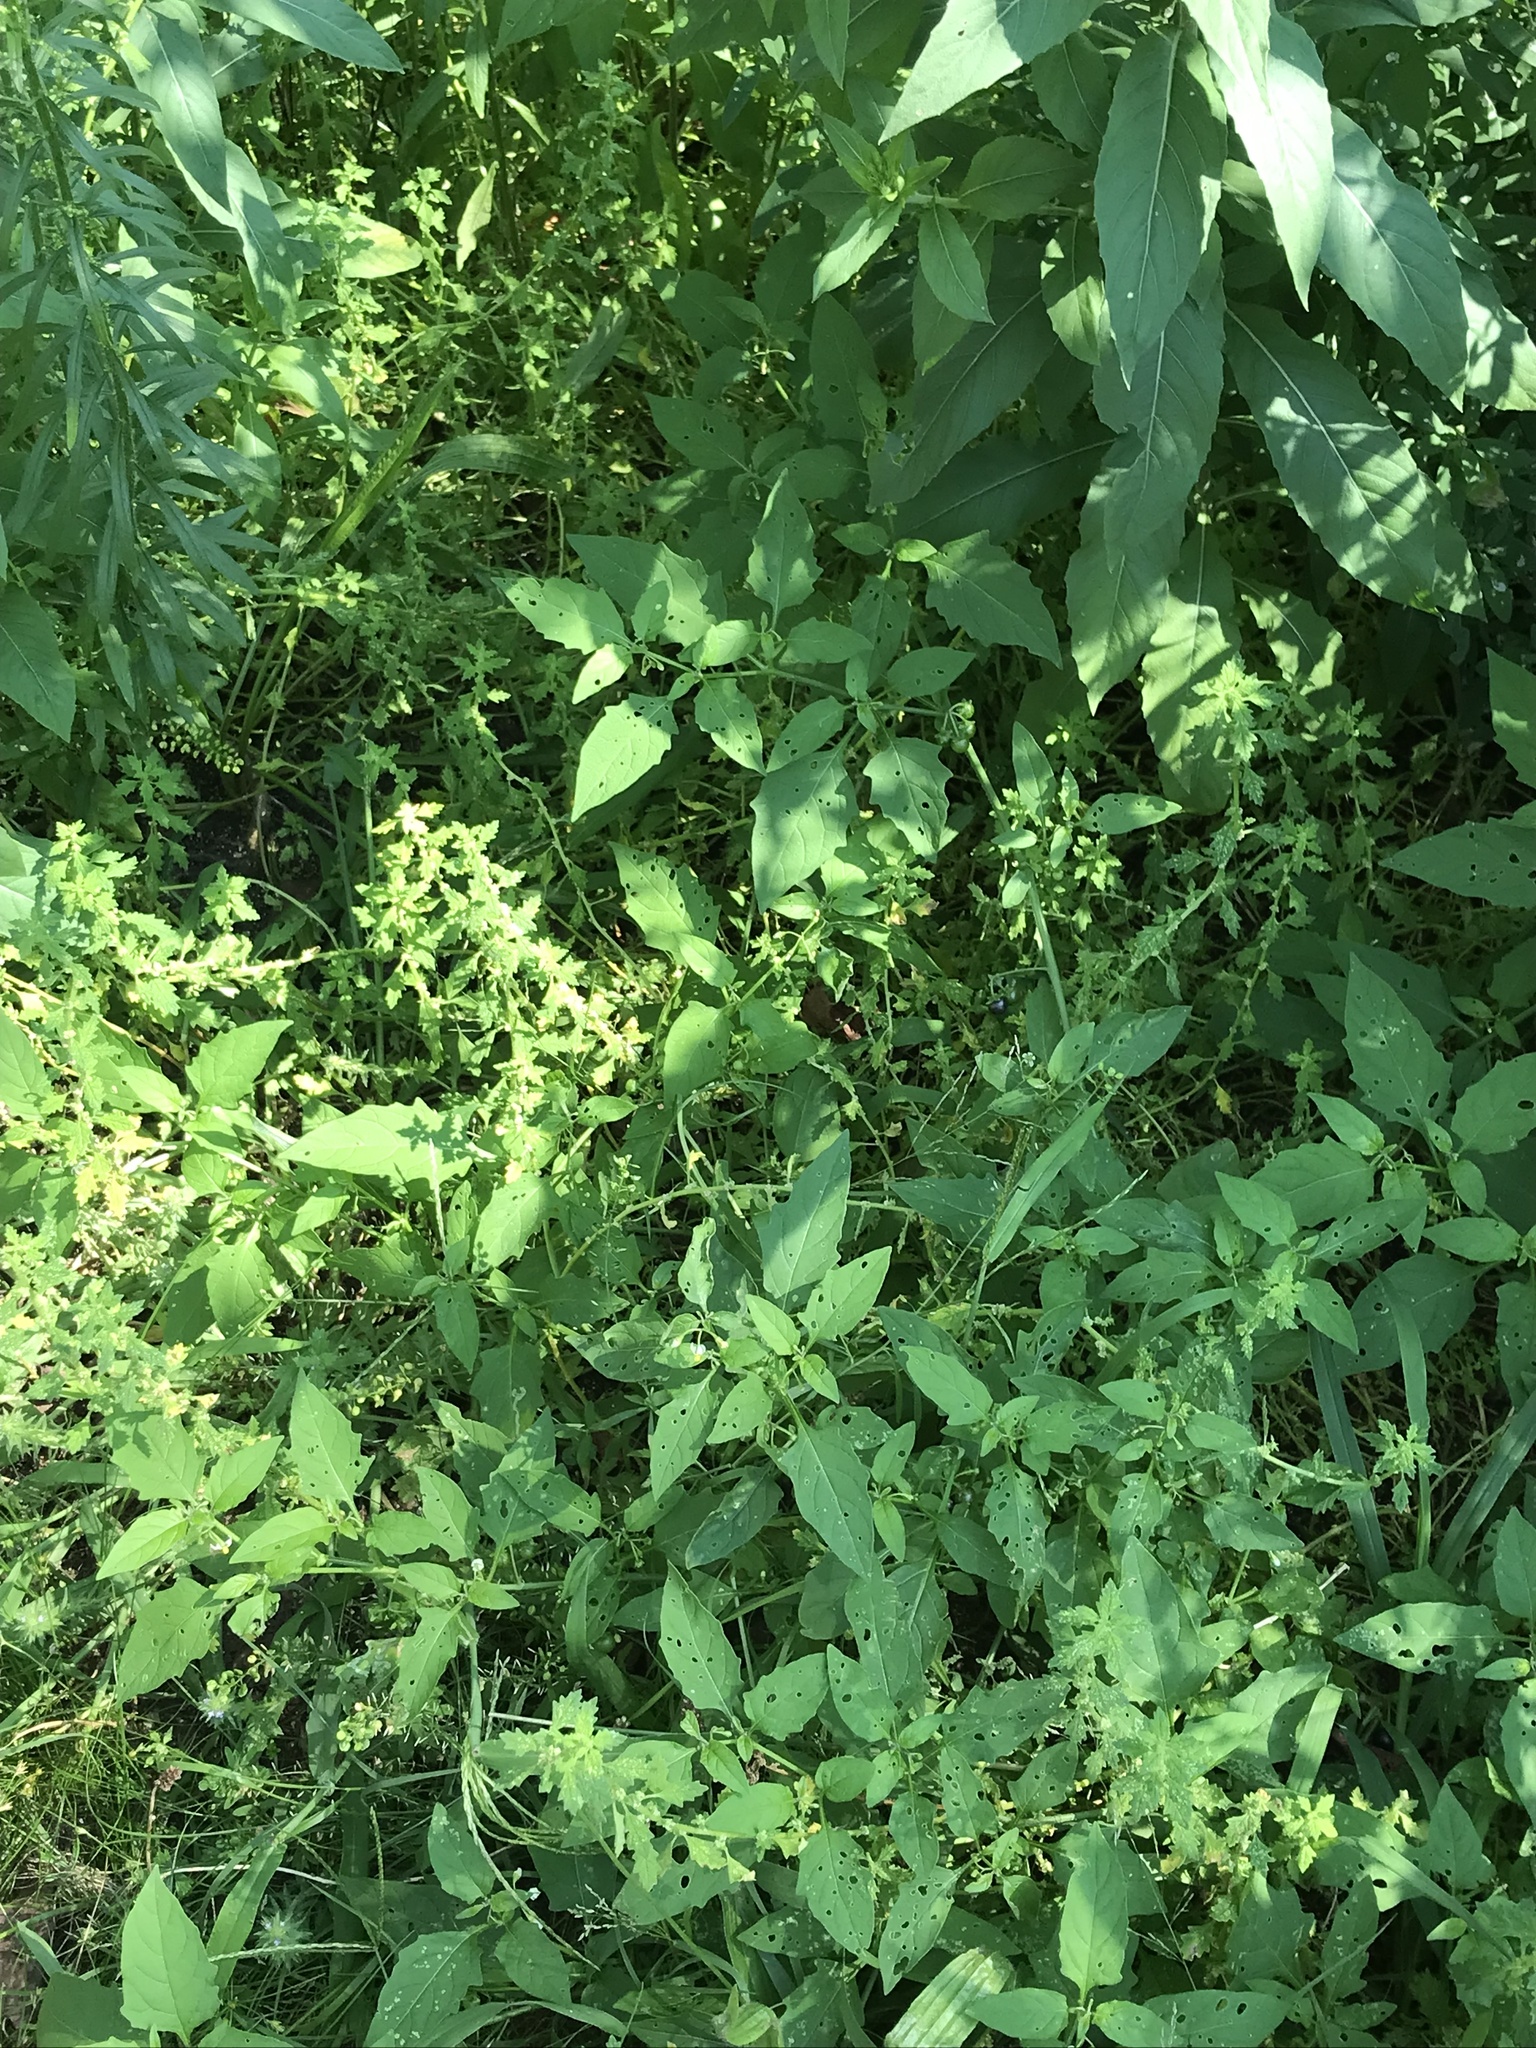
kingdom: Plantae
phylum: Tracheophyta
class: Magnoliopsida
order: Solanales
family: Solanaceae
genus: Solanum
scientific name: Solanum emulans
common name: Eastern black nightshade
